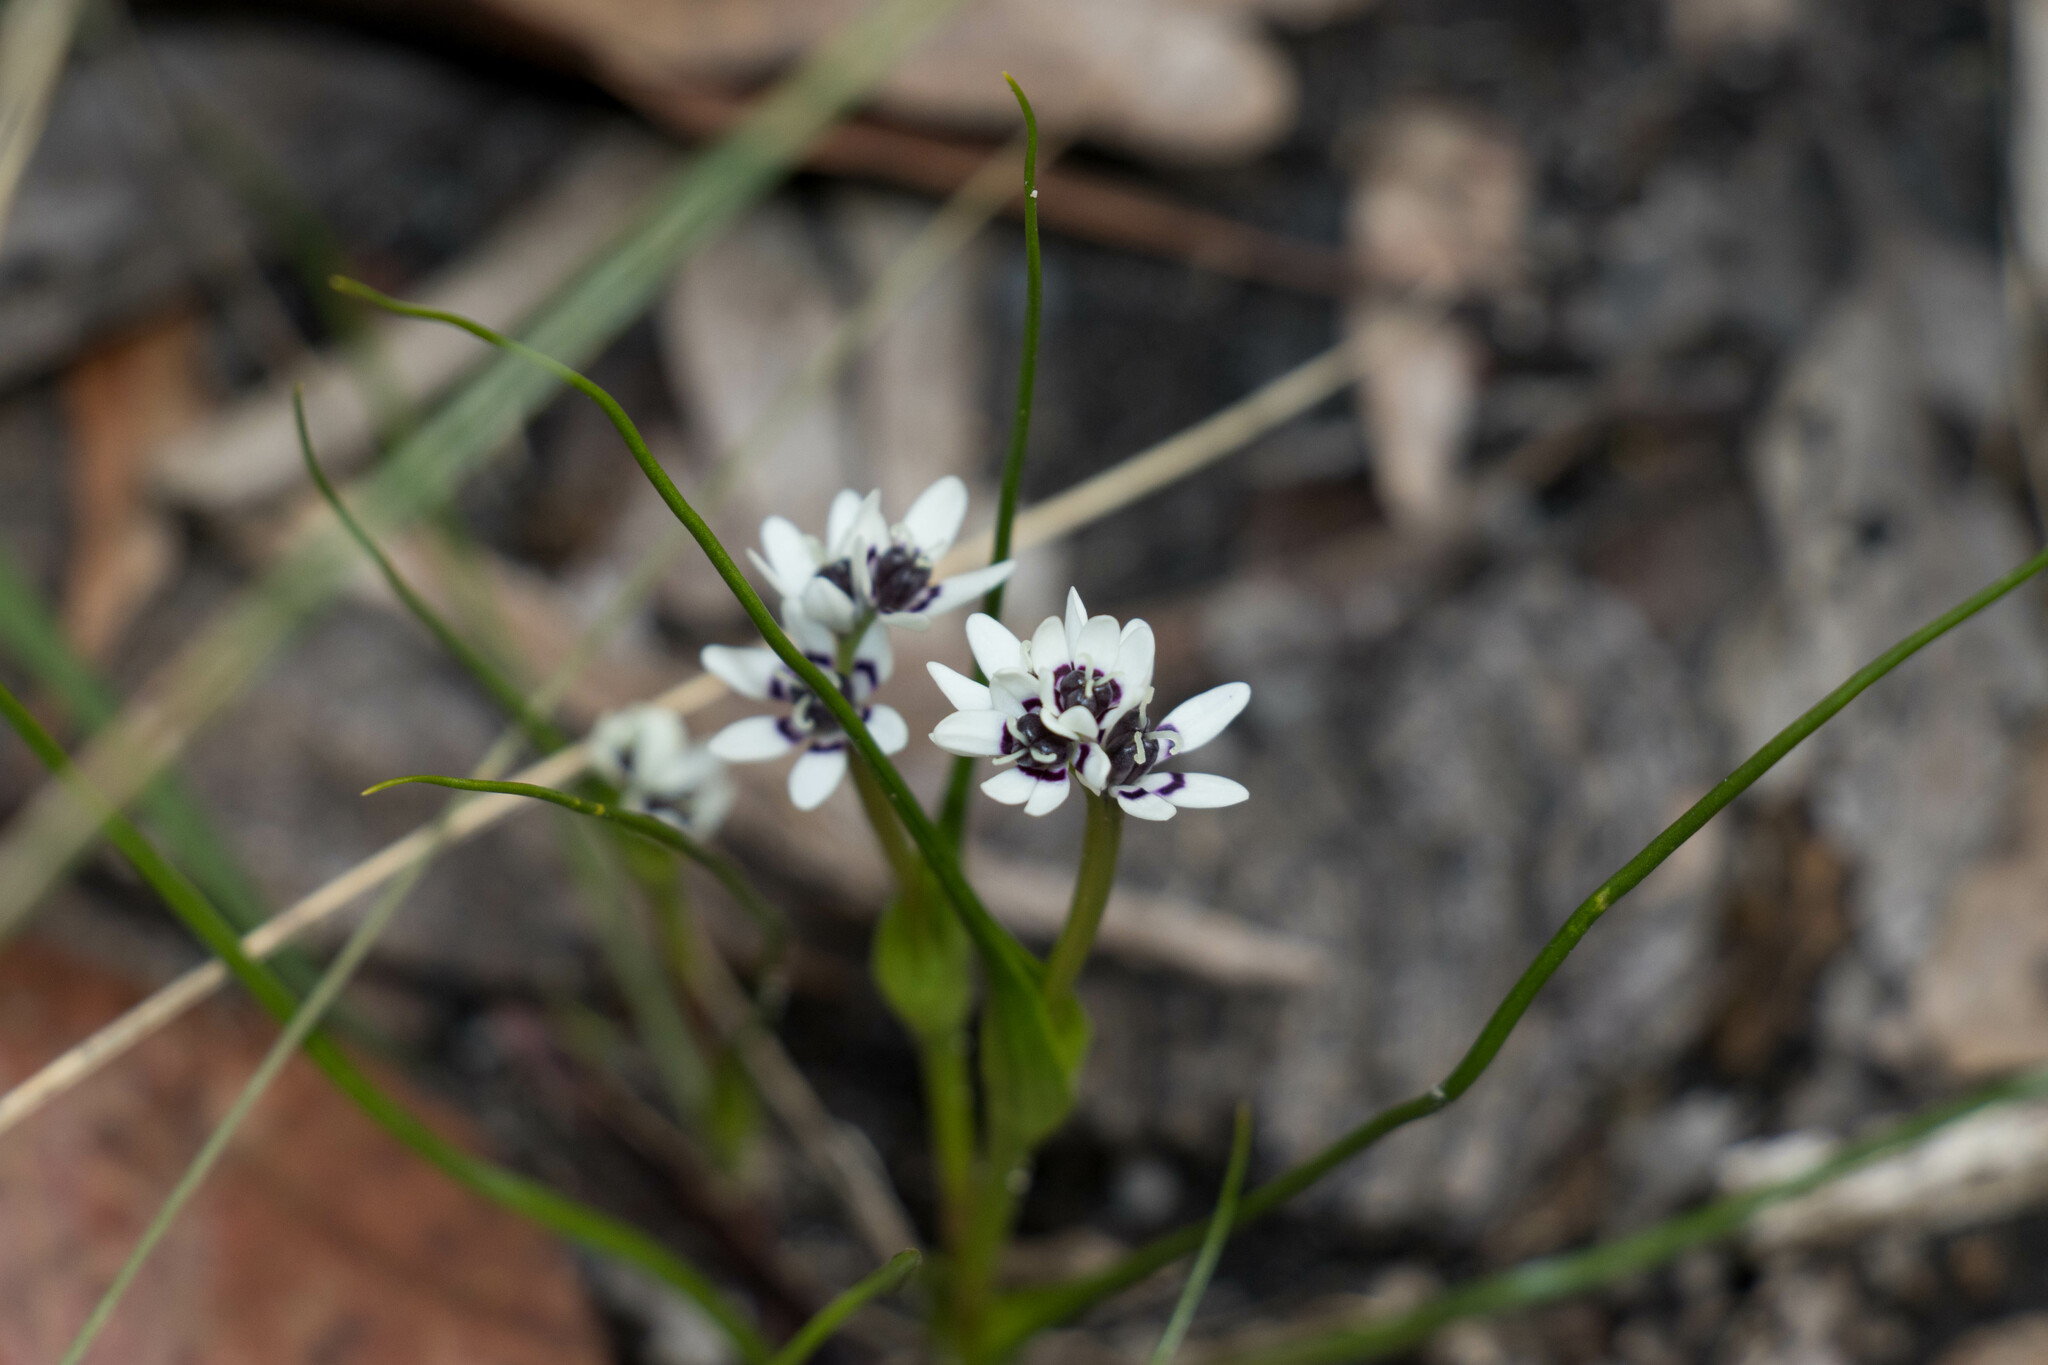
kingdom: Plantae
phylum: Tracheophyta
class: Liliopsida
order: Liliales
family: Colchicaceae
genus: Wurmbea
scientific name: Wurmbea dioica
